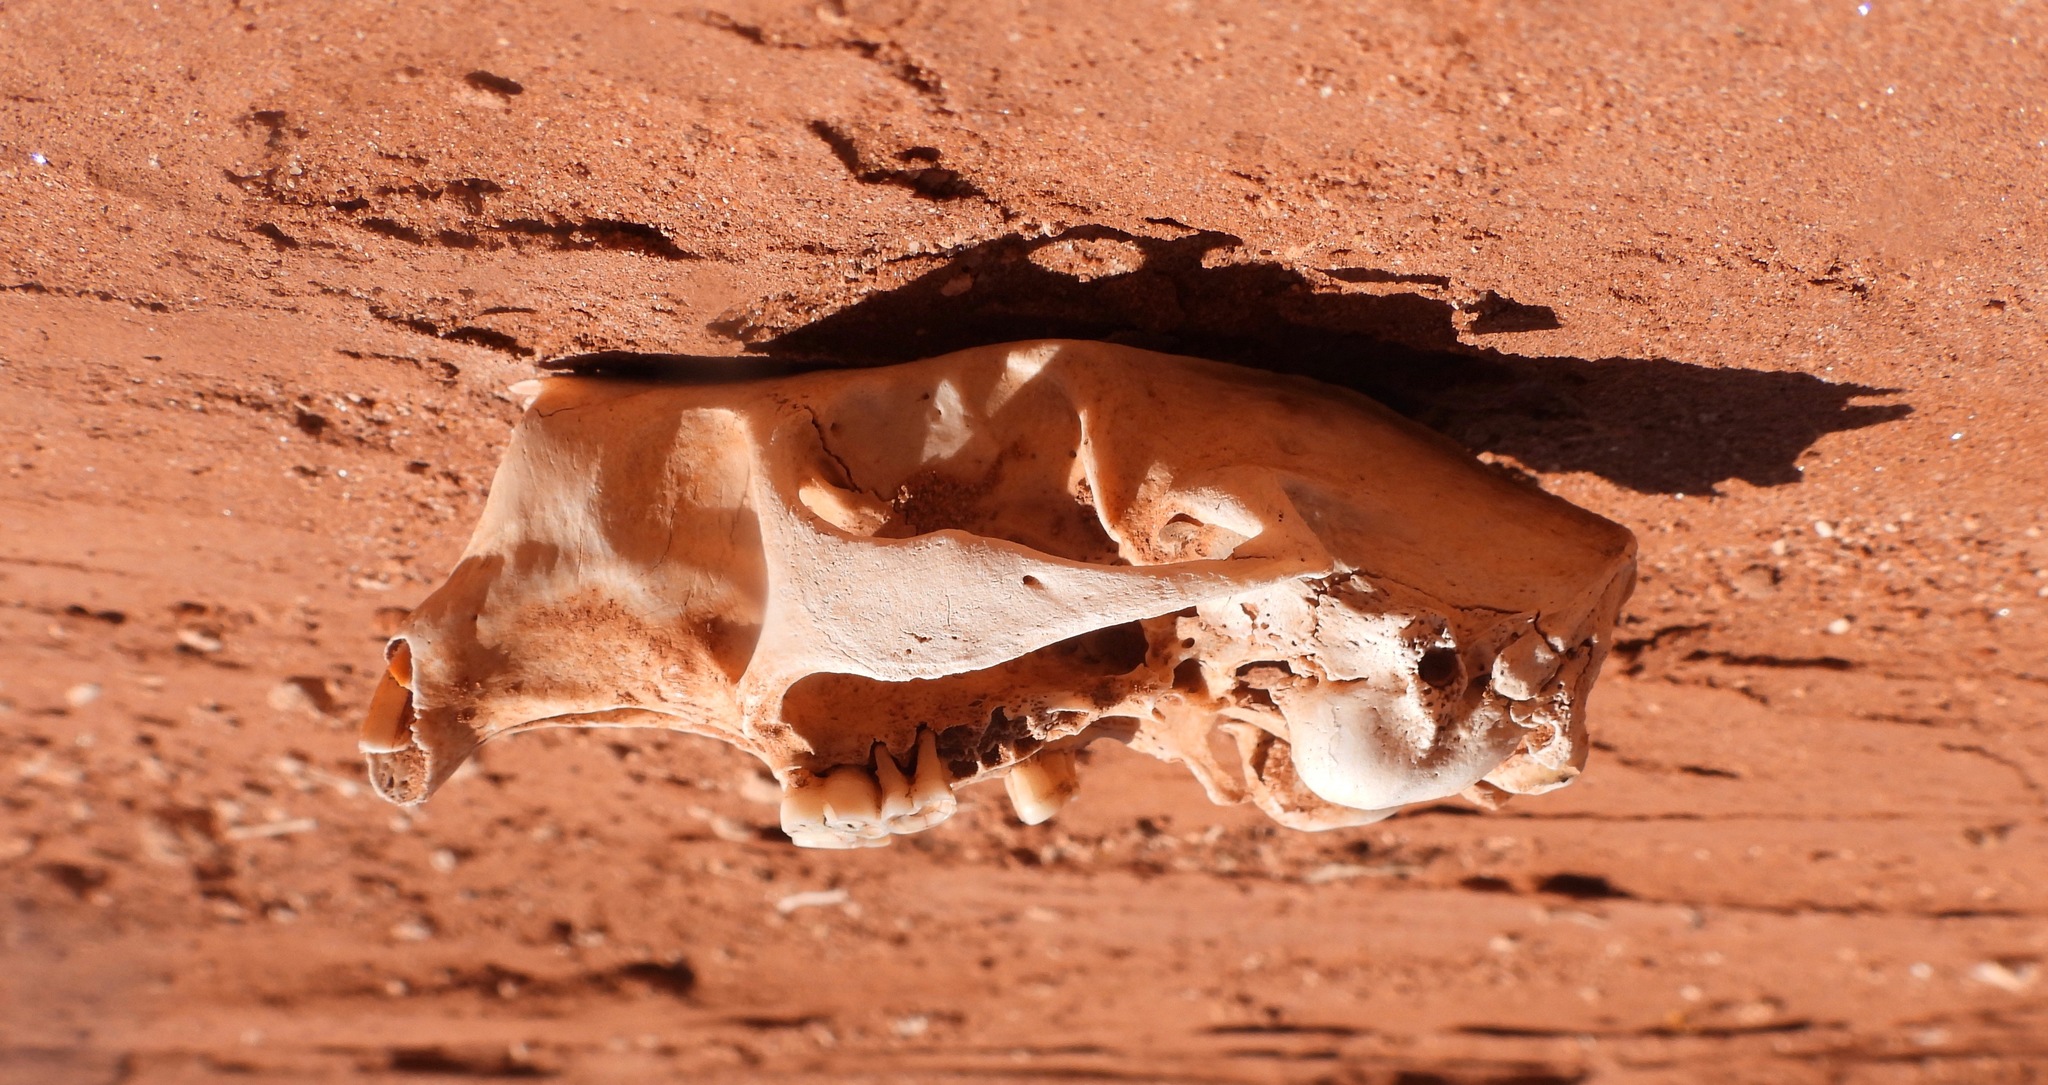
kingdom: Animalia
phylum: Chordata
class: Mammalia
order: Rodentia
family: Erethizontidae
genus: Erethizon
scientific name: Erethizon dorsatus
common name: North american porcupine
